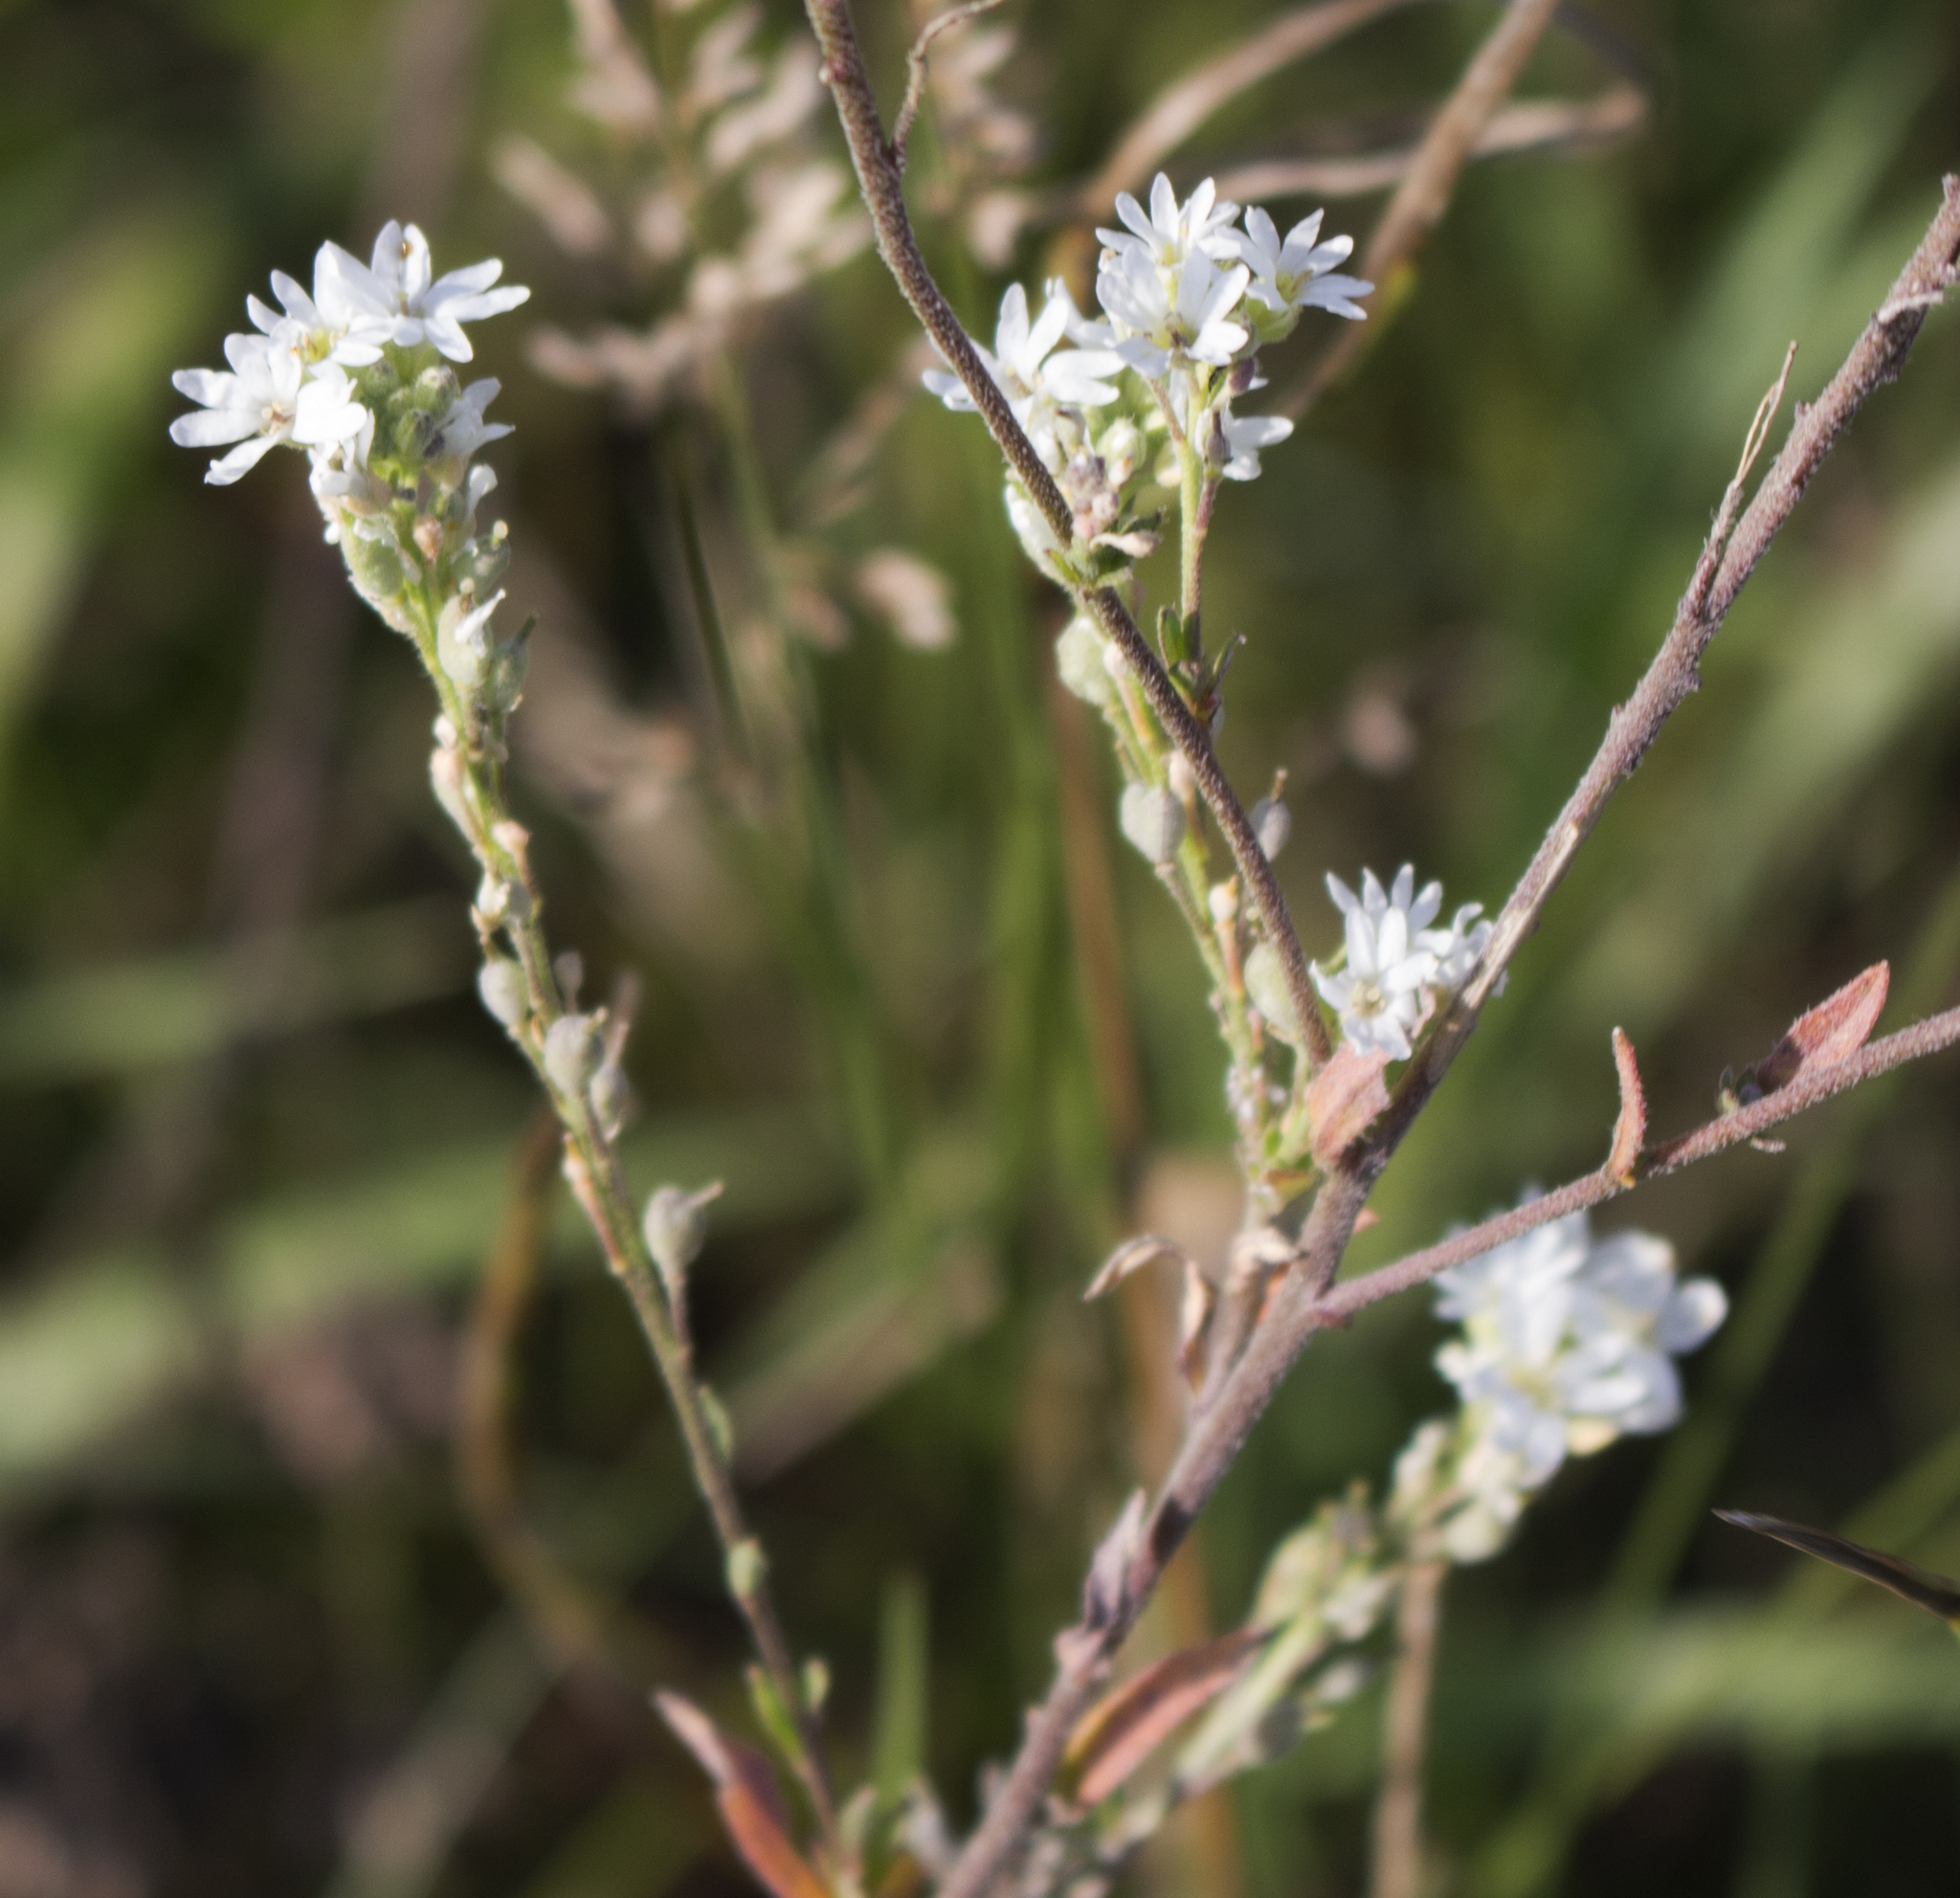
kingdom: Plantae
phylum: Tracheophyta
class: Magnoliopsida
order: Brassicales
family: Brassicaceae
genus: Berteroa
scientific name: Berteroa incana
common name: Hoary alison
